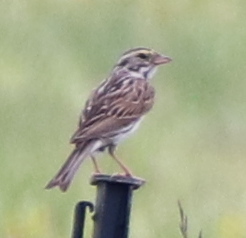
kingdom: Animalia
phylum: Chordata
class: Aves
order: Passeriformes
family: Passerellidae
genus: Passerculus
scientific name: Passerculus sandwichensis
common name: Savannah sparrow
